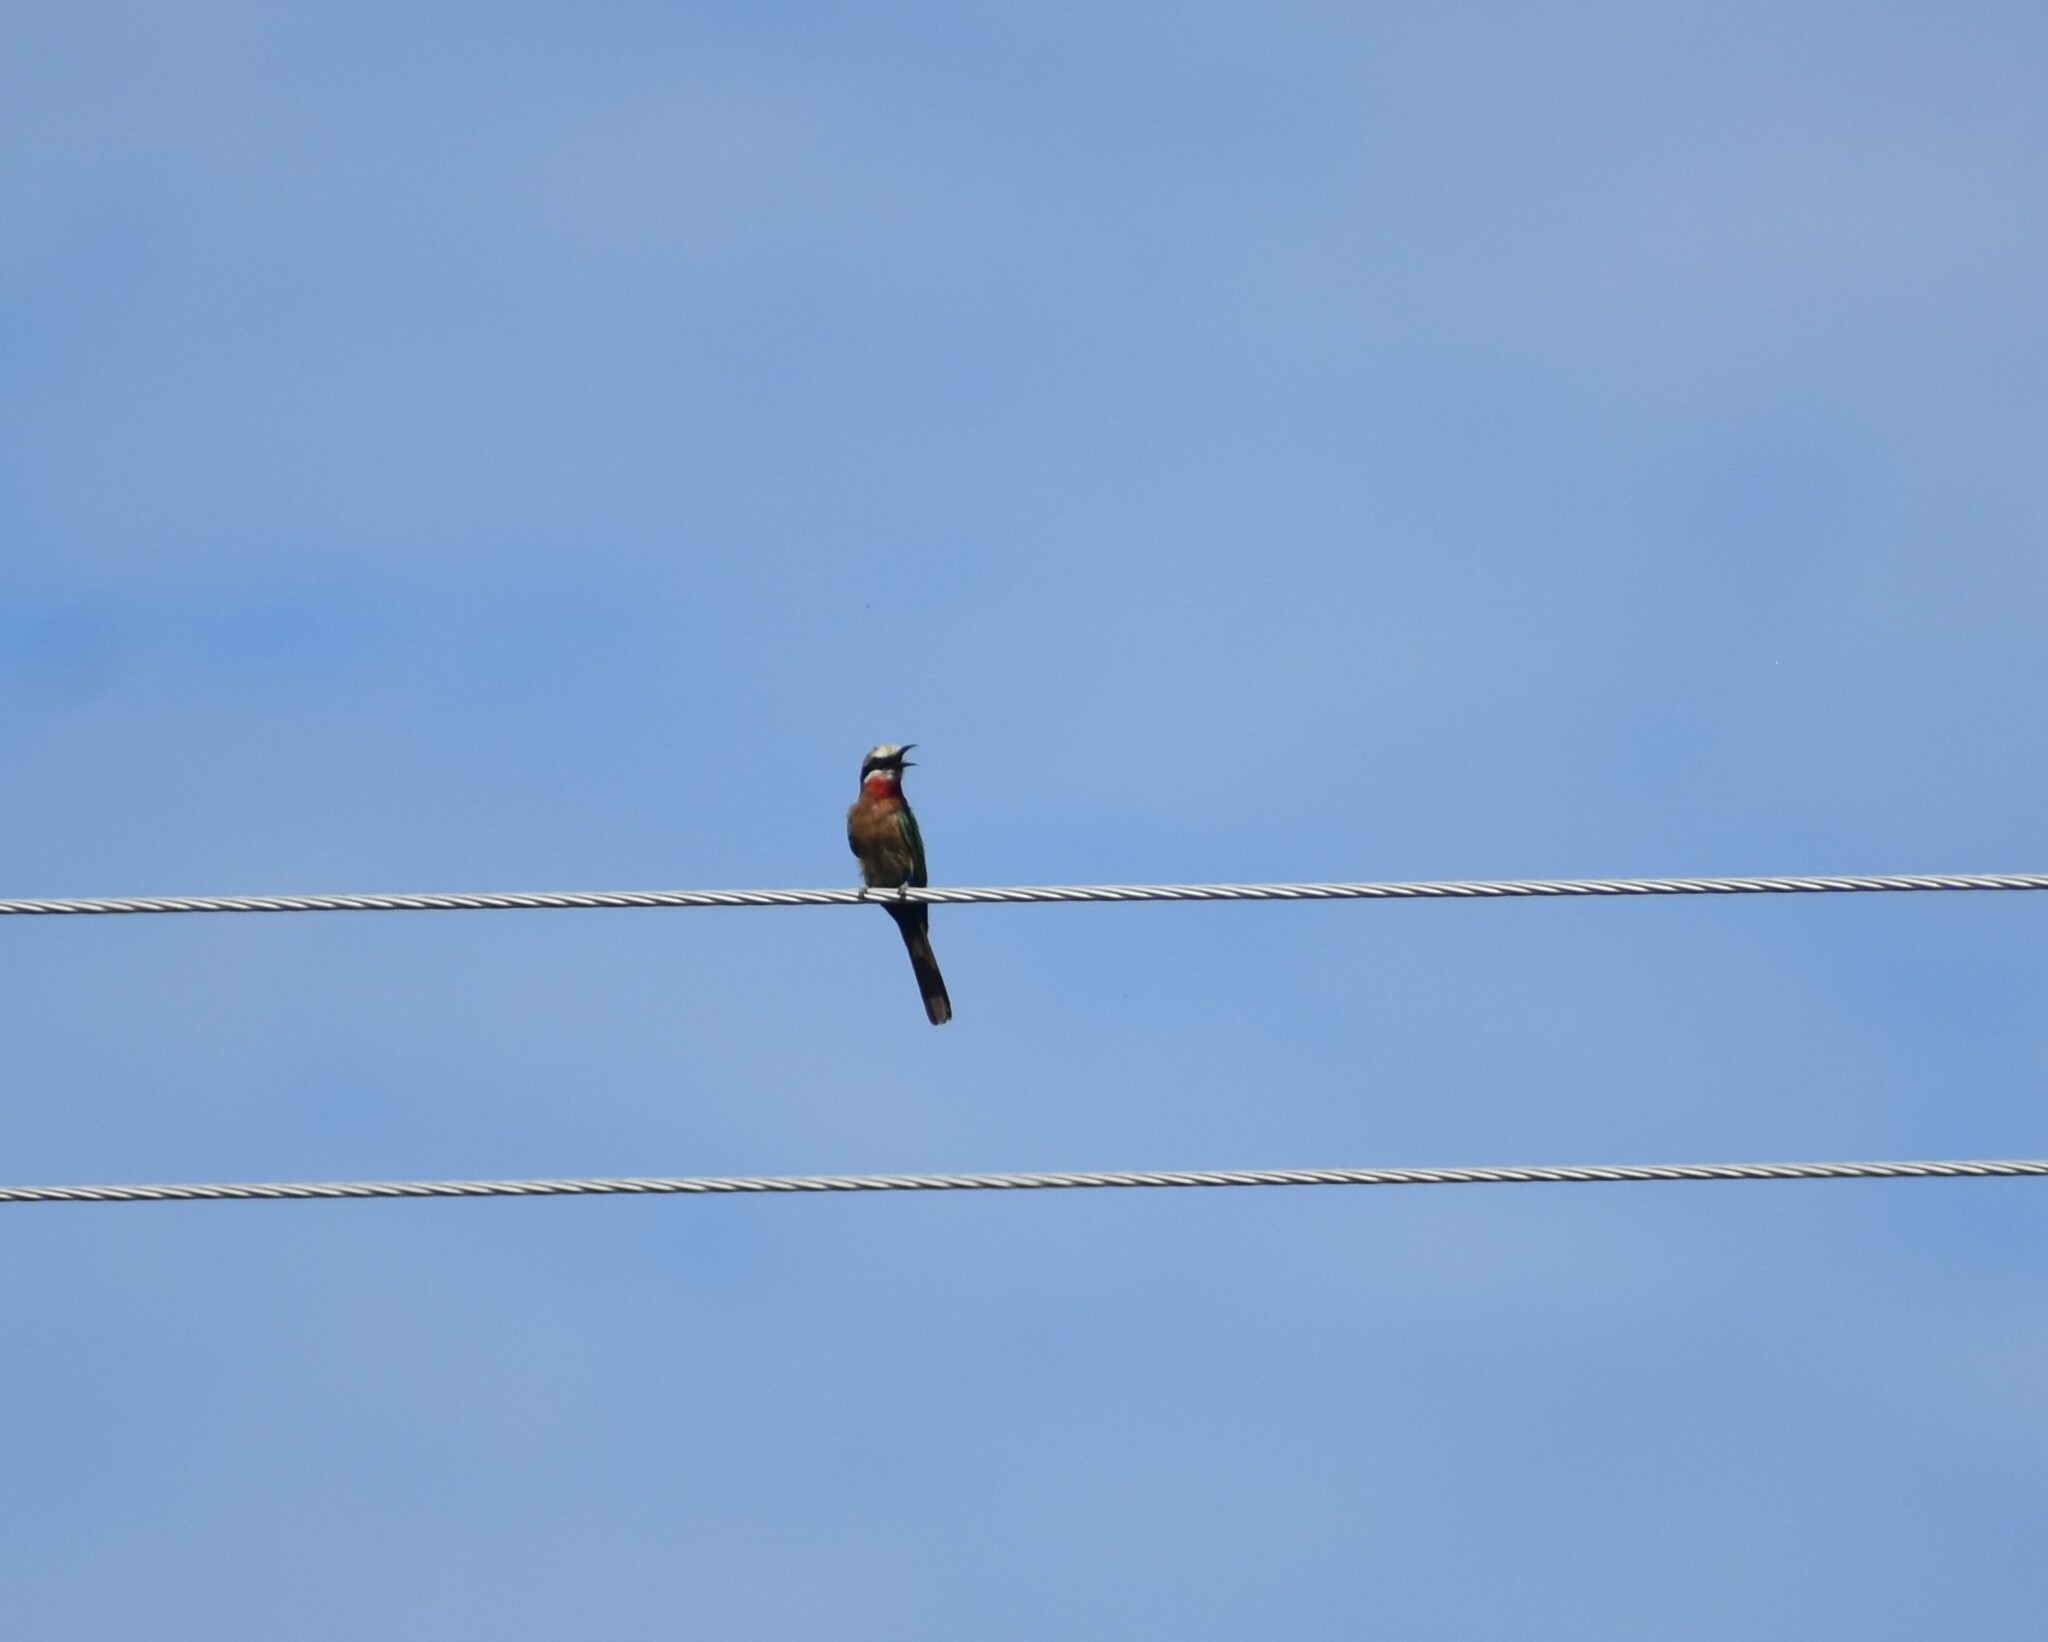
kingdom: Animalia
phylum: Chordata
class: Aves
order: Coraciiformes
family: Meropidae
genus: Merops
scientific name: Merops bullockoides
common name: White-fronted bee-eater
